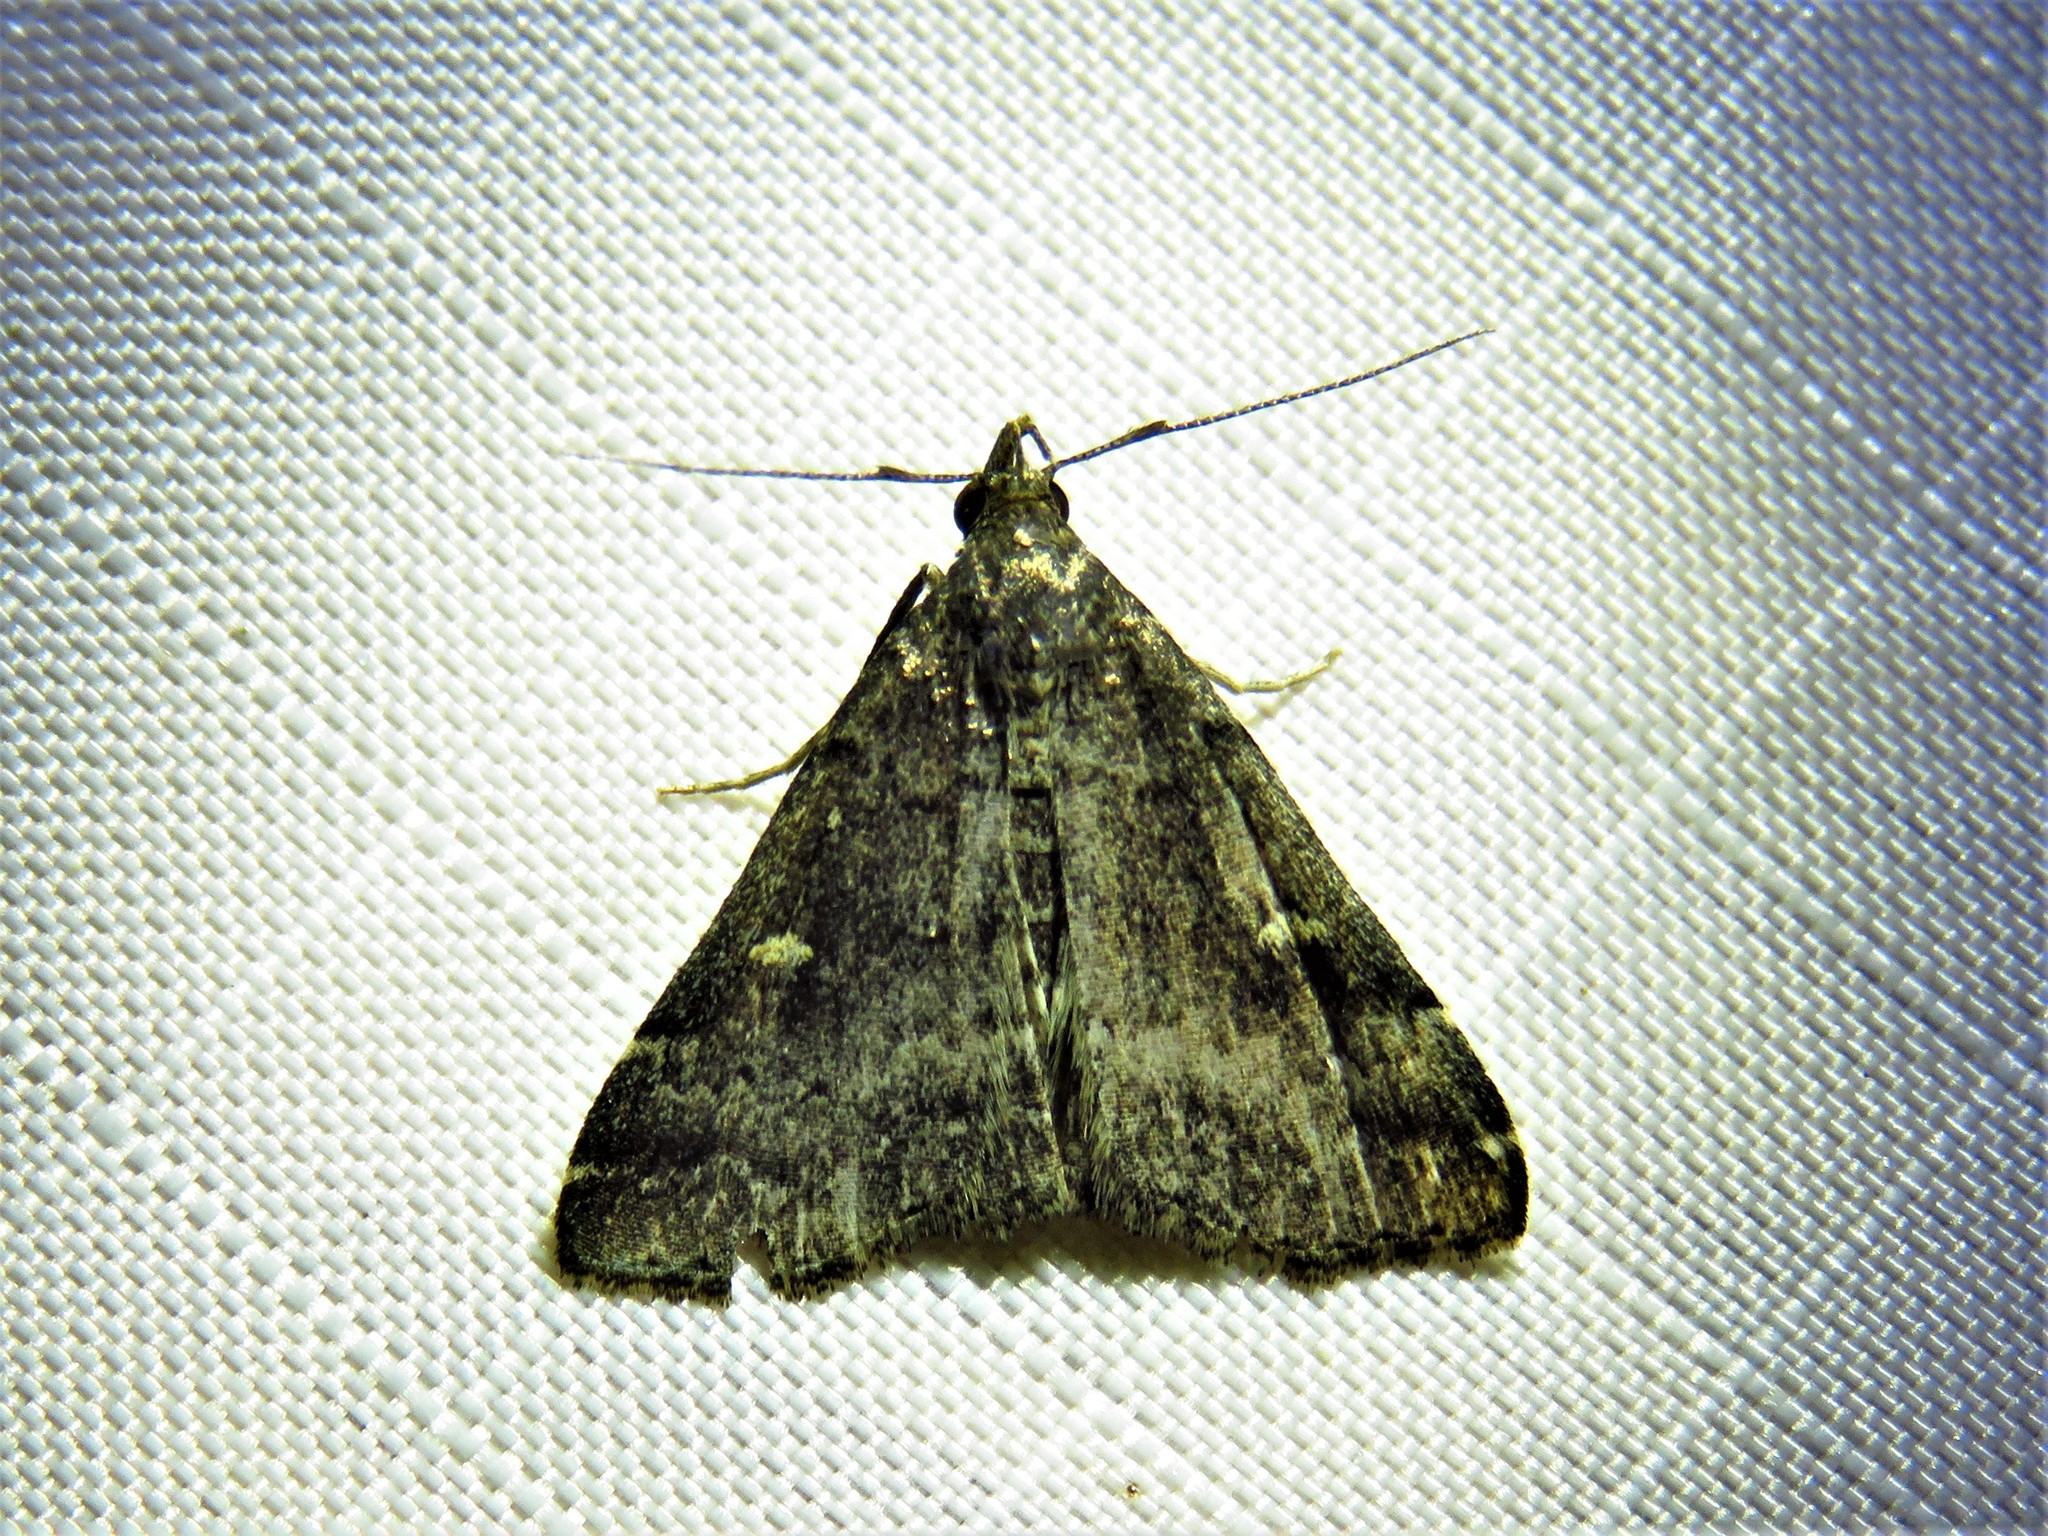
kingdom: Animalia
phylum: Arthropoda
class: Insecta
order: Lepidoptera
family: Erebidae
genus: Tetanolita
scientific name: Tetanolita mynesalis
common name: Smoky tetanolita moth
